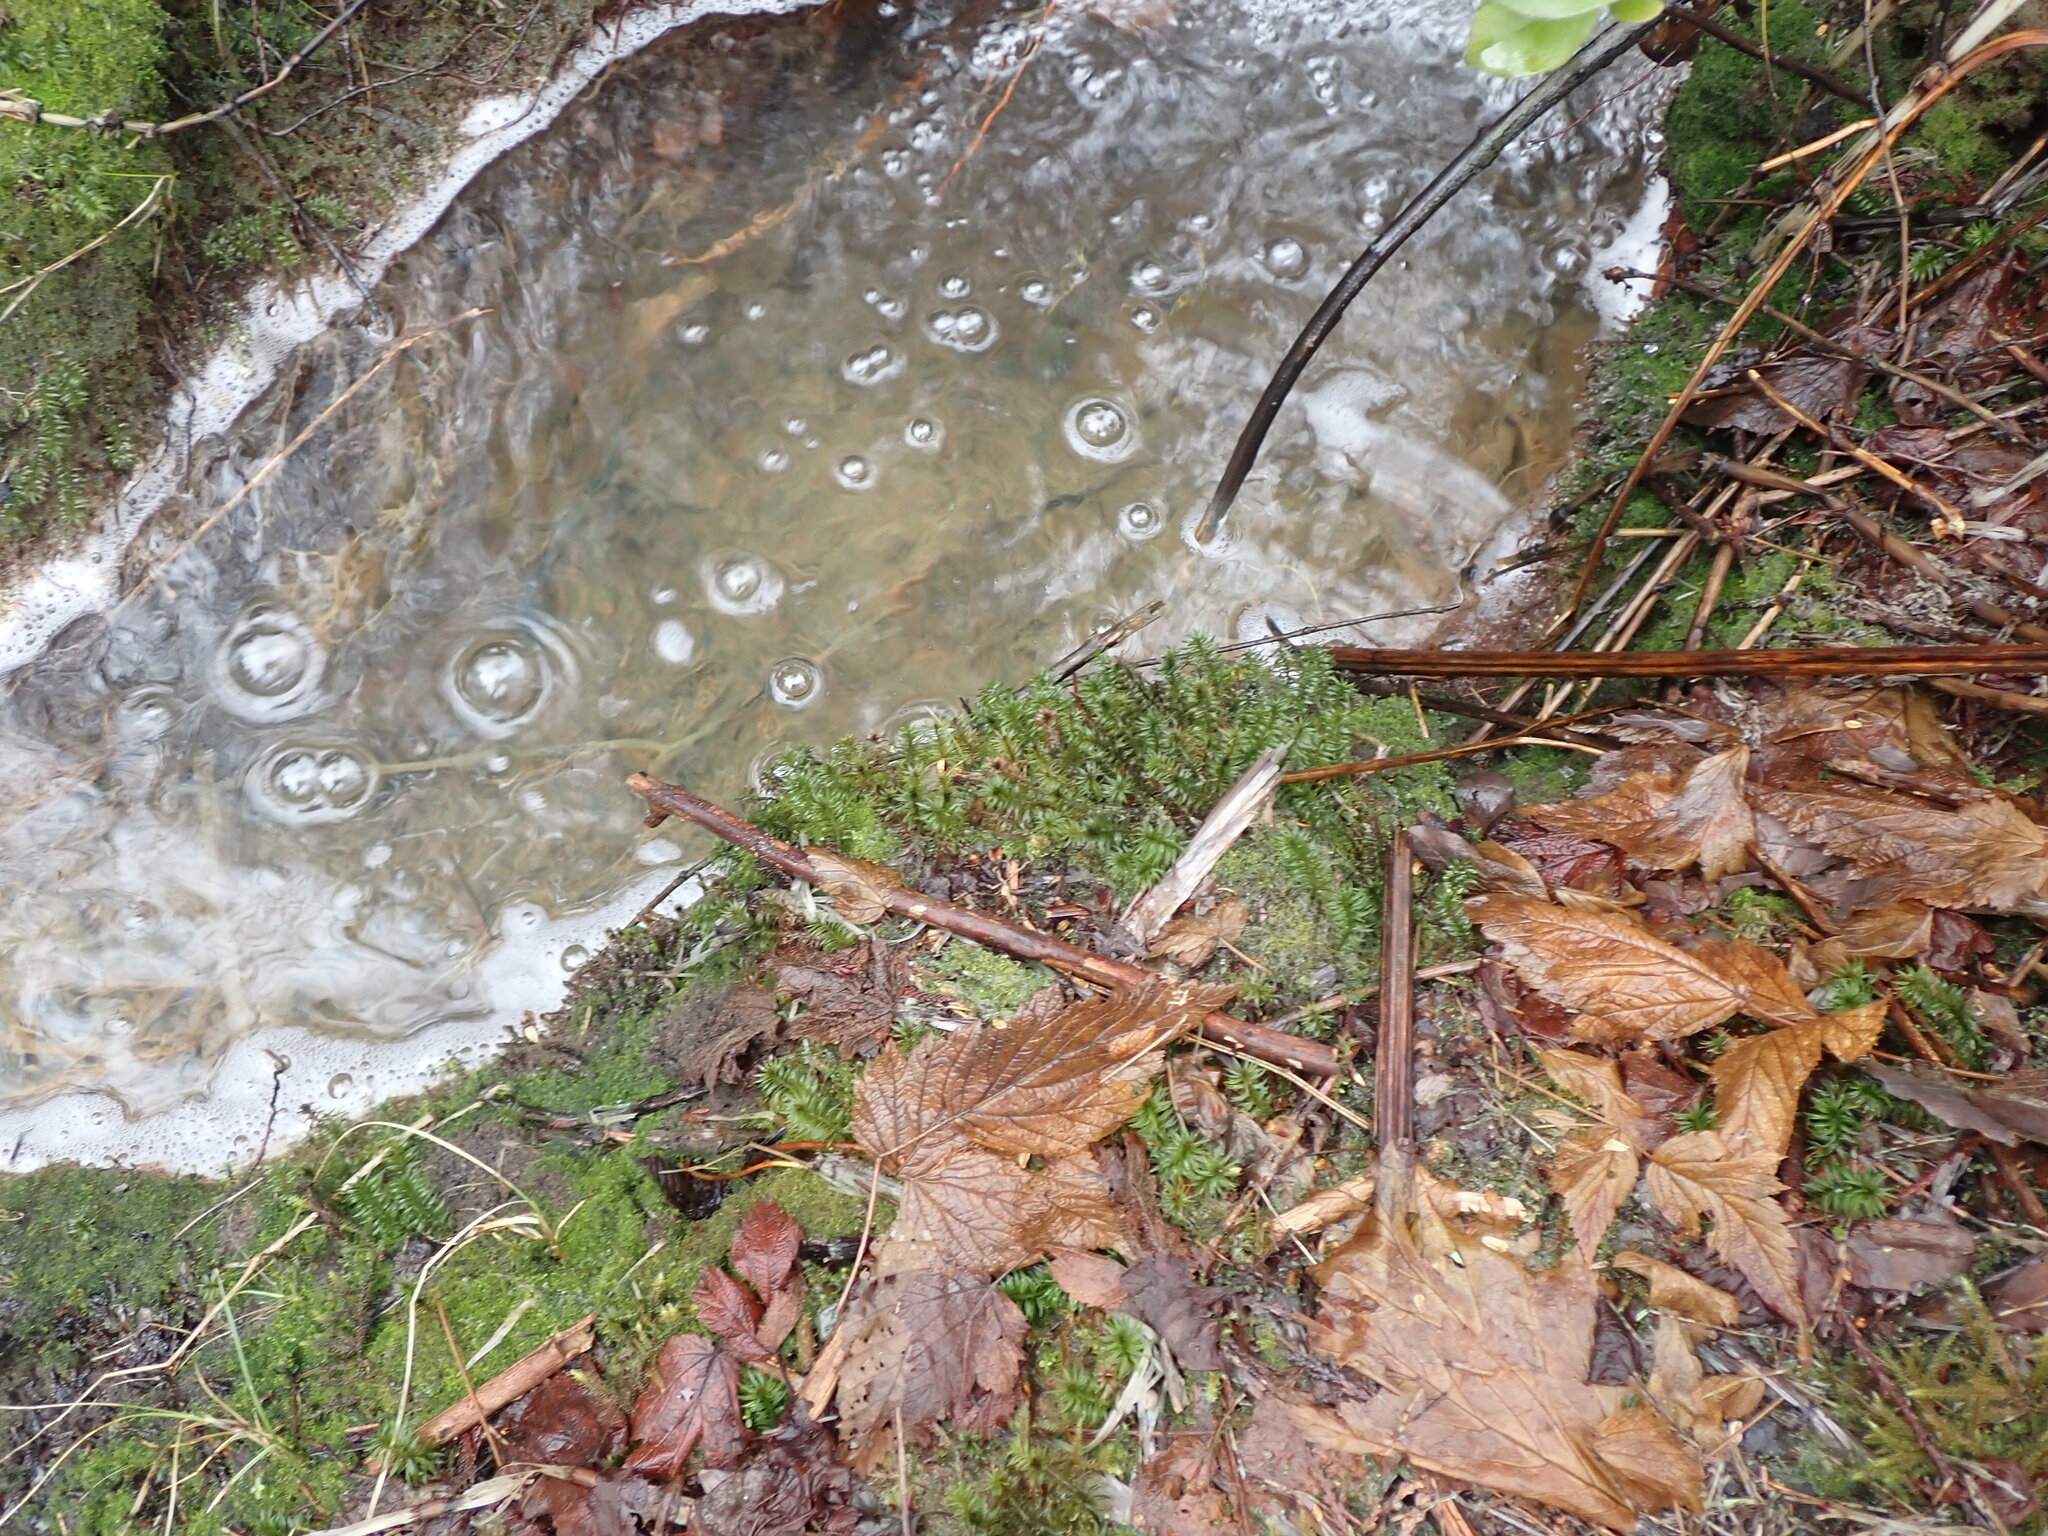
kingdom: Plantae
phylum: Bryophyta
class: Polytrichopsida
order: Polytrichales
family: Polytrichaceae
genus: Pogonatum
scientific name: Pogonatum contortum
